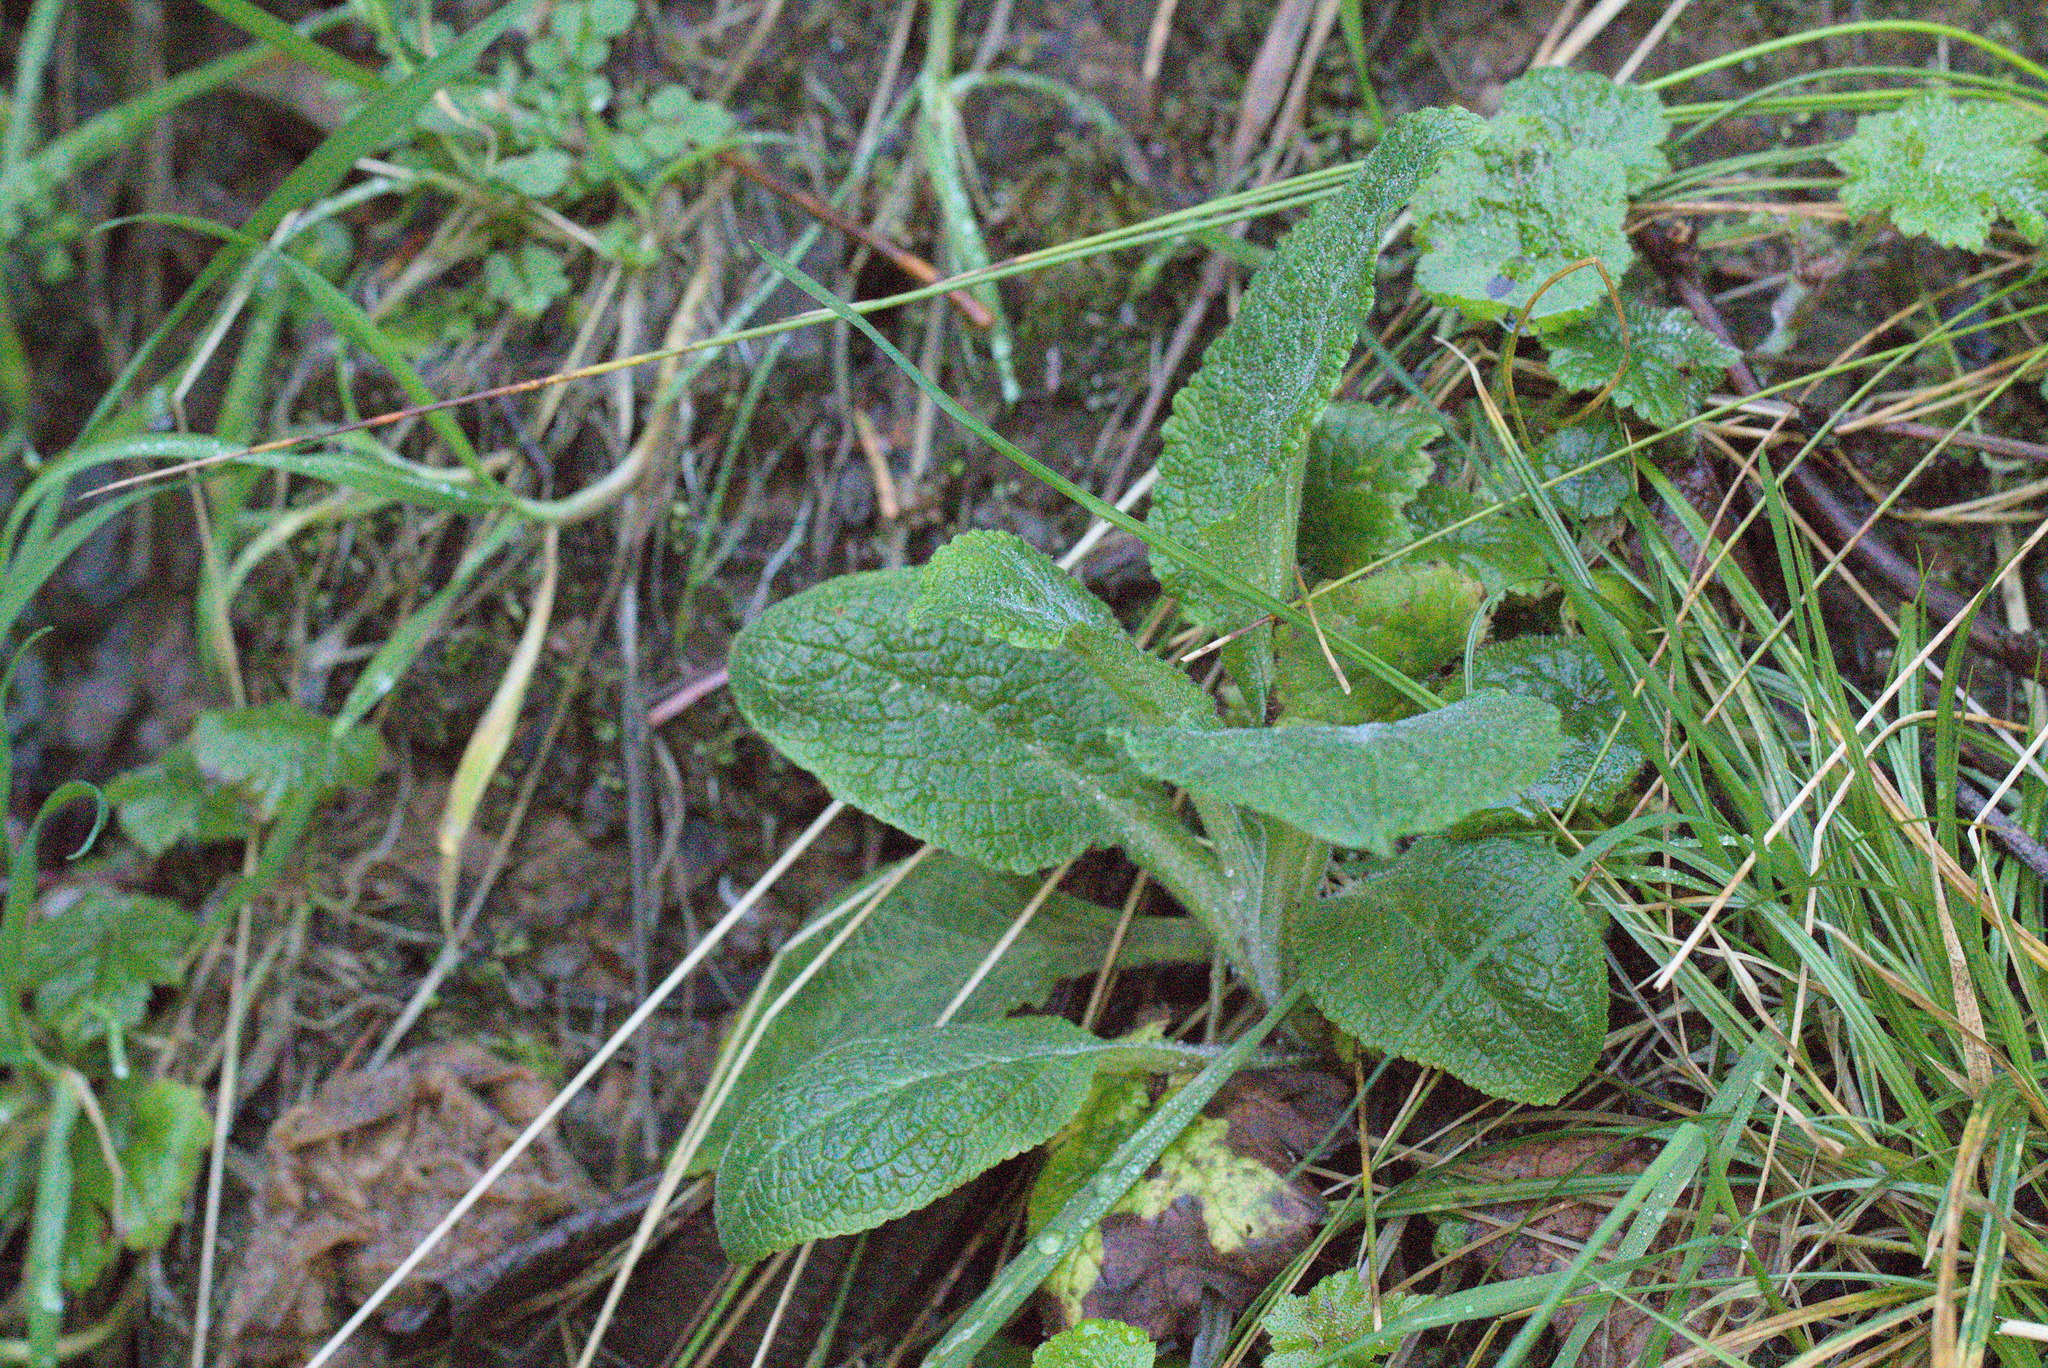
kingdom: Plantae
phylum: Tracheophyta
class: Magnoliopsida
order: Lamiales
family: Plantaginaceae
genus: Digitalis
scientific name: Digitalis purpurea
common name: Foxglove
